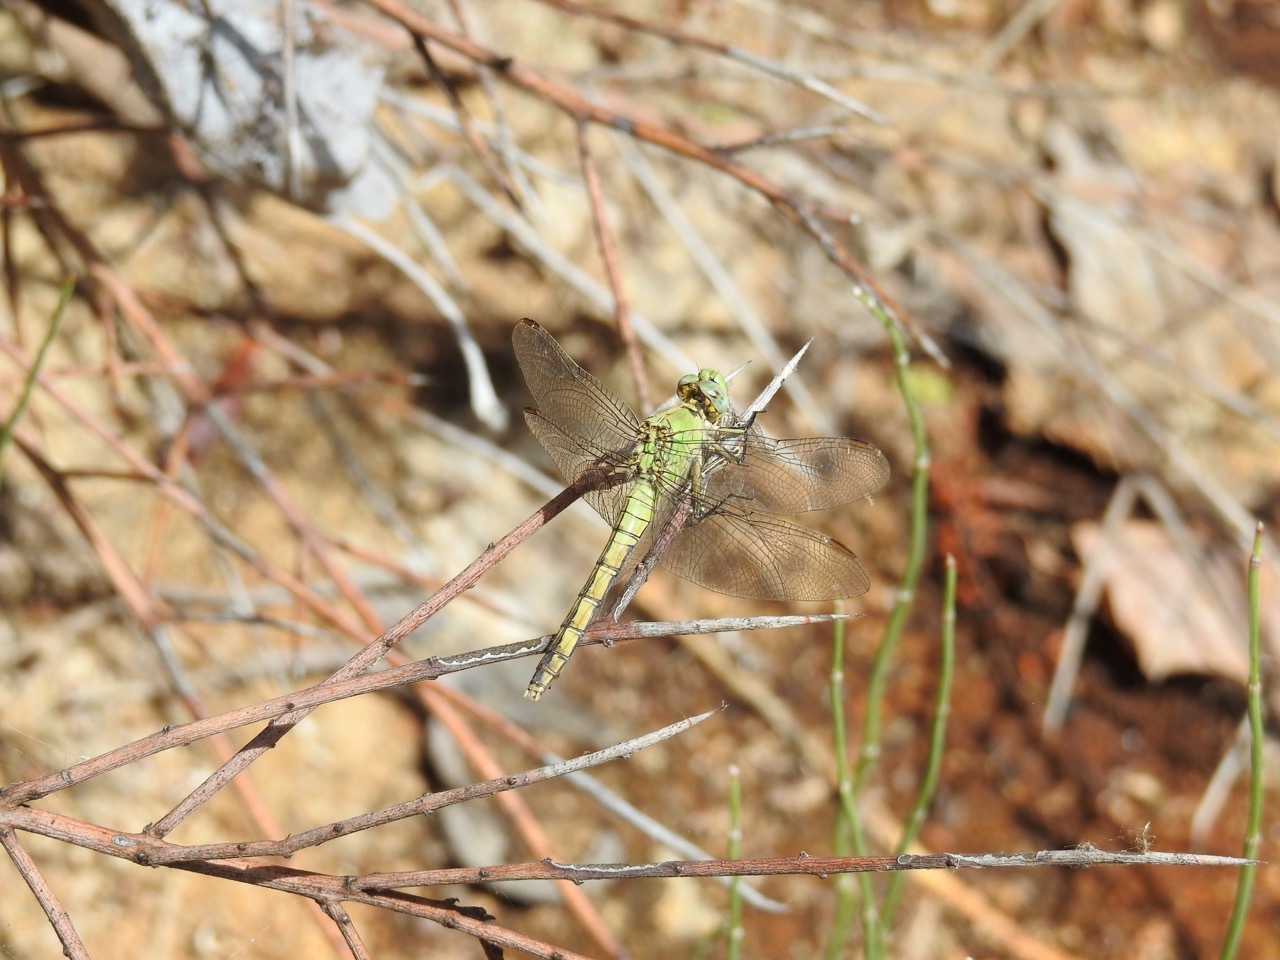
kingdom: Animalia
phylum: Arthropoda
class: Insecta
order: Odonata
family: Libellulidae
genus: Erythemis
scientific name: Erythemis collocata
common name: Western pondhawk
